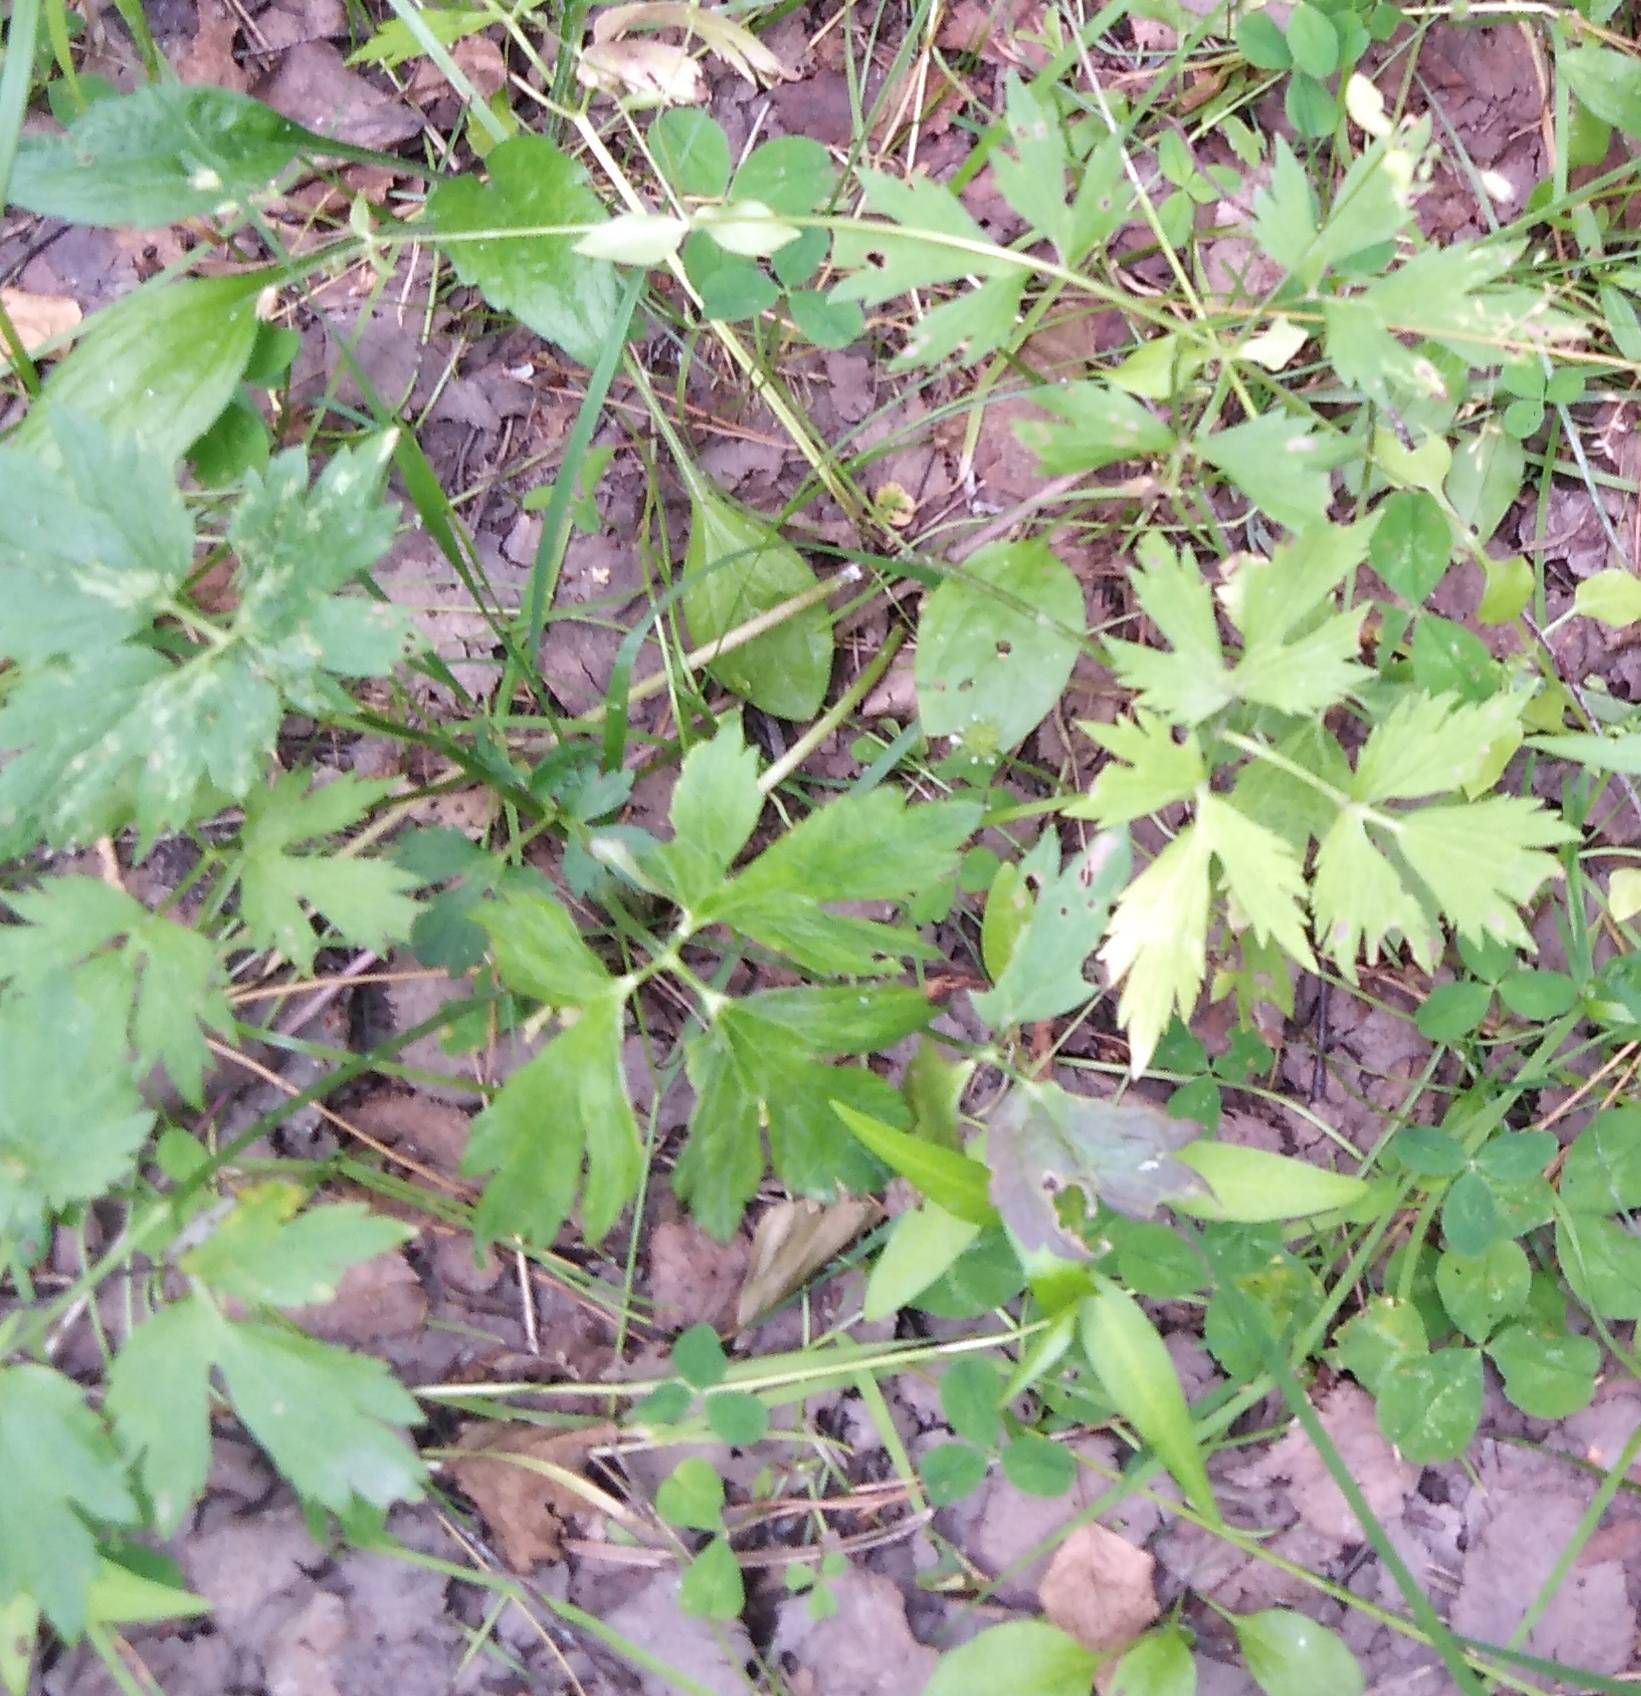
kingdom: Plantae
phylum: Tracheophyta
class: Magnoliopsida
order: Ranunculales
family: Ranunculaceae
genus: Ranunculus
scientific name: Ranunculus repens
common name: Creeping buttercup
